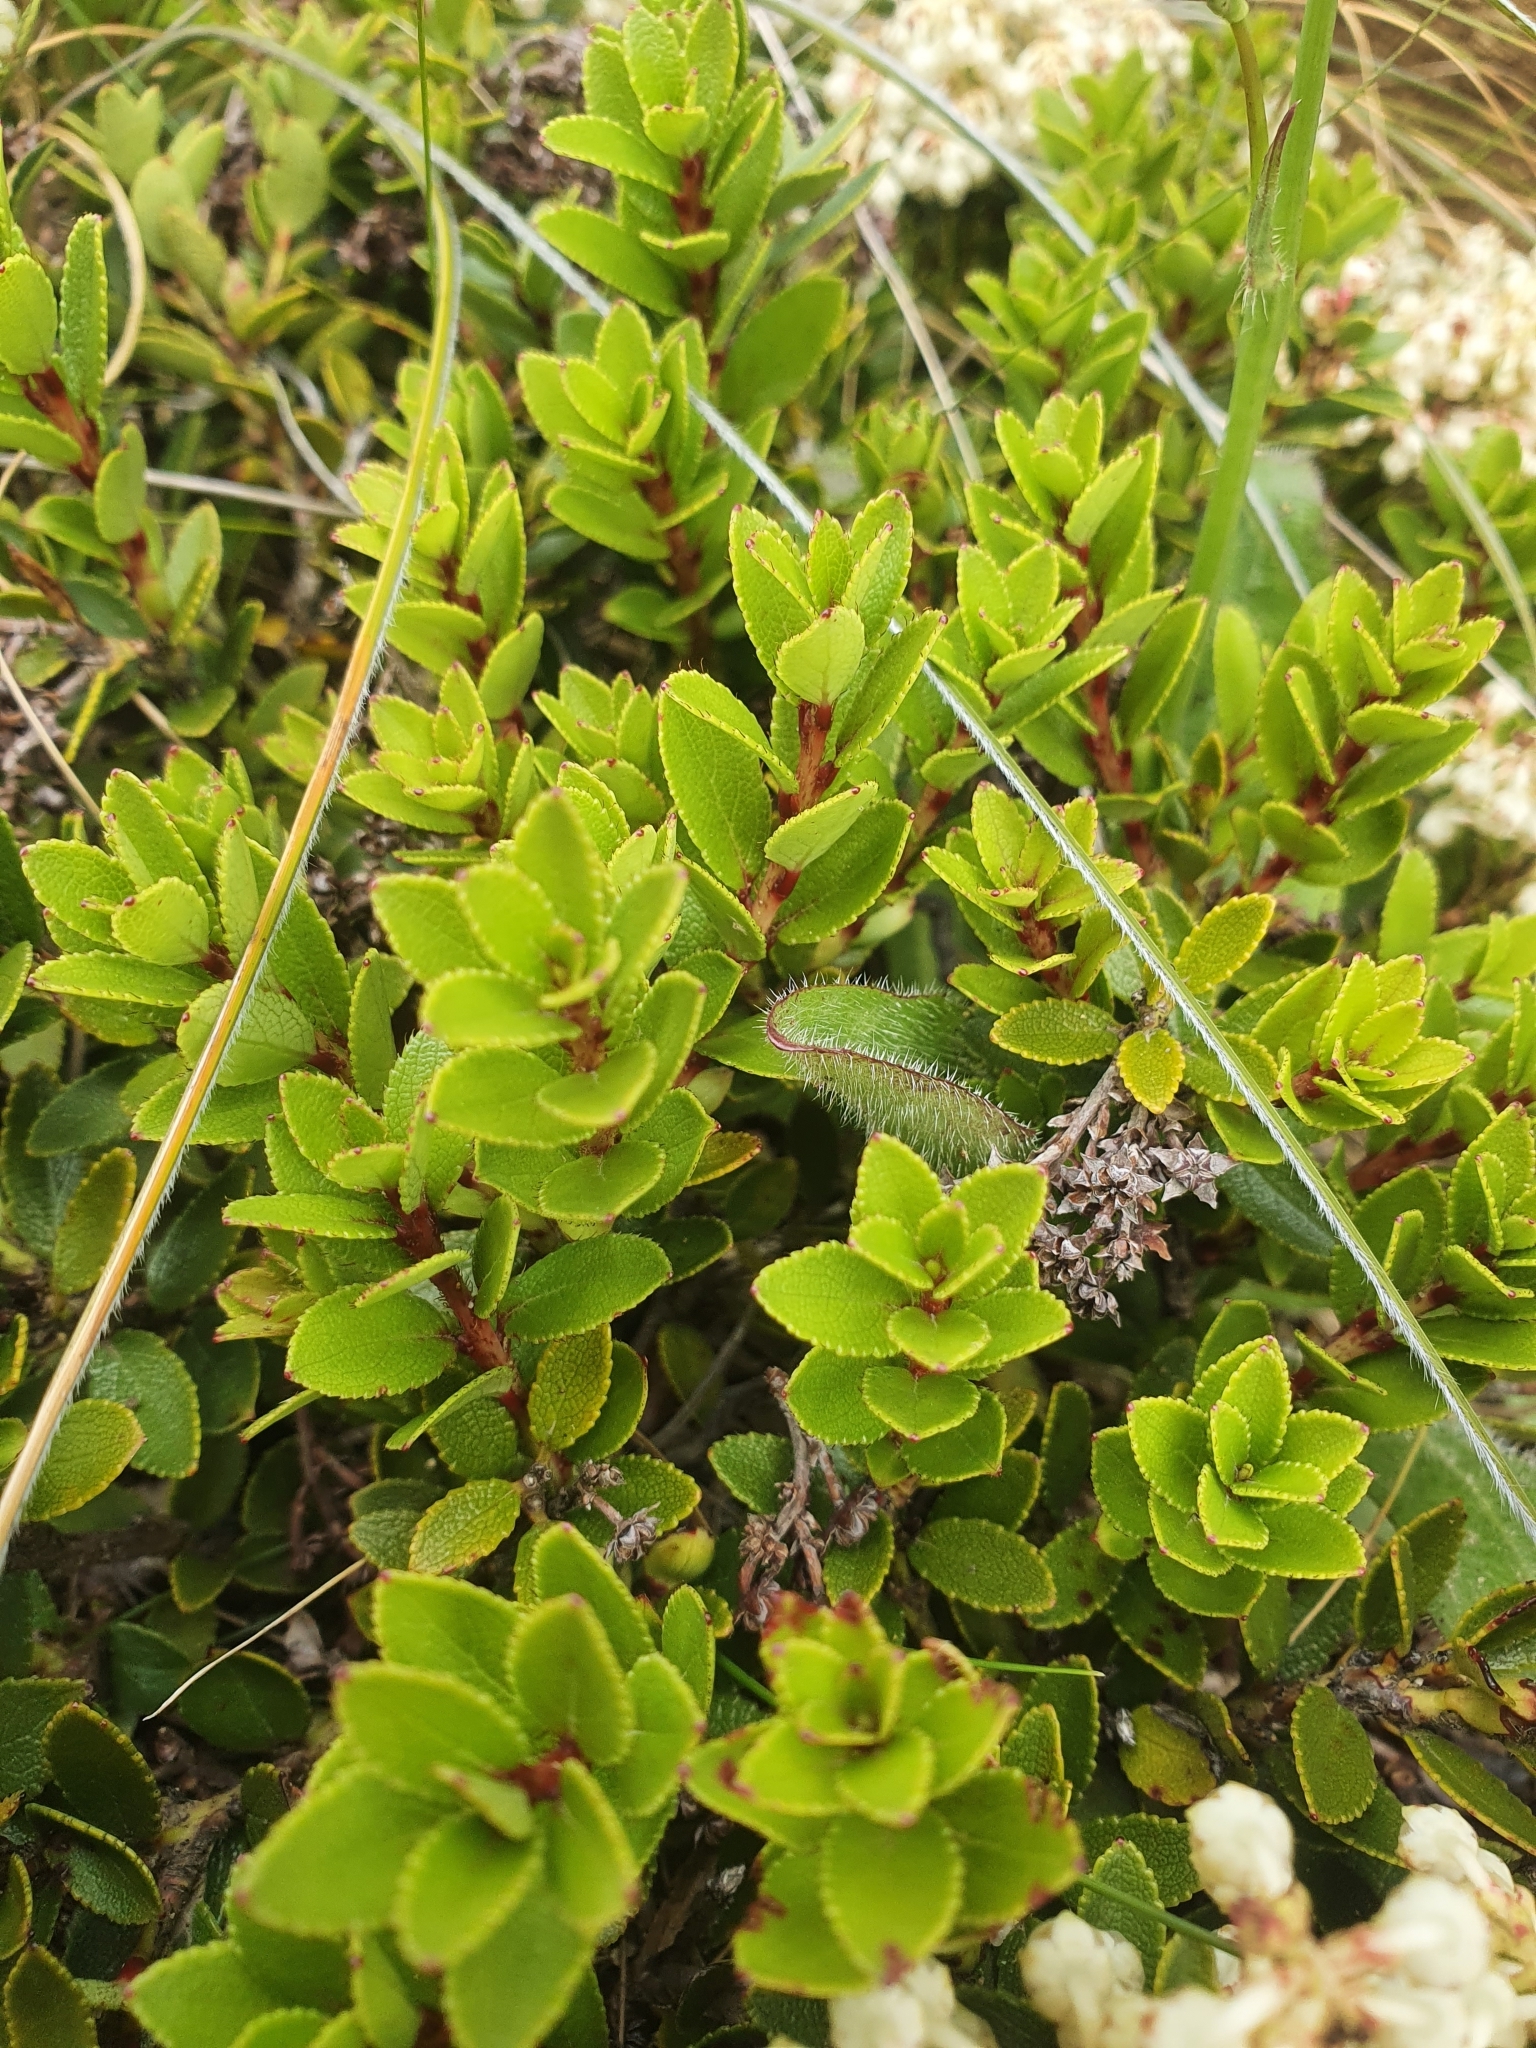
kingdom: Plantae
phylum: Tracheophyta
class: Magnoliopsida
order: Ericales
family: Ericaceae
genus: Gaultheria
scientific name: Gaultheria crassa
